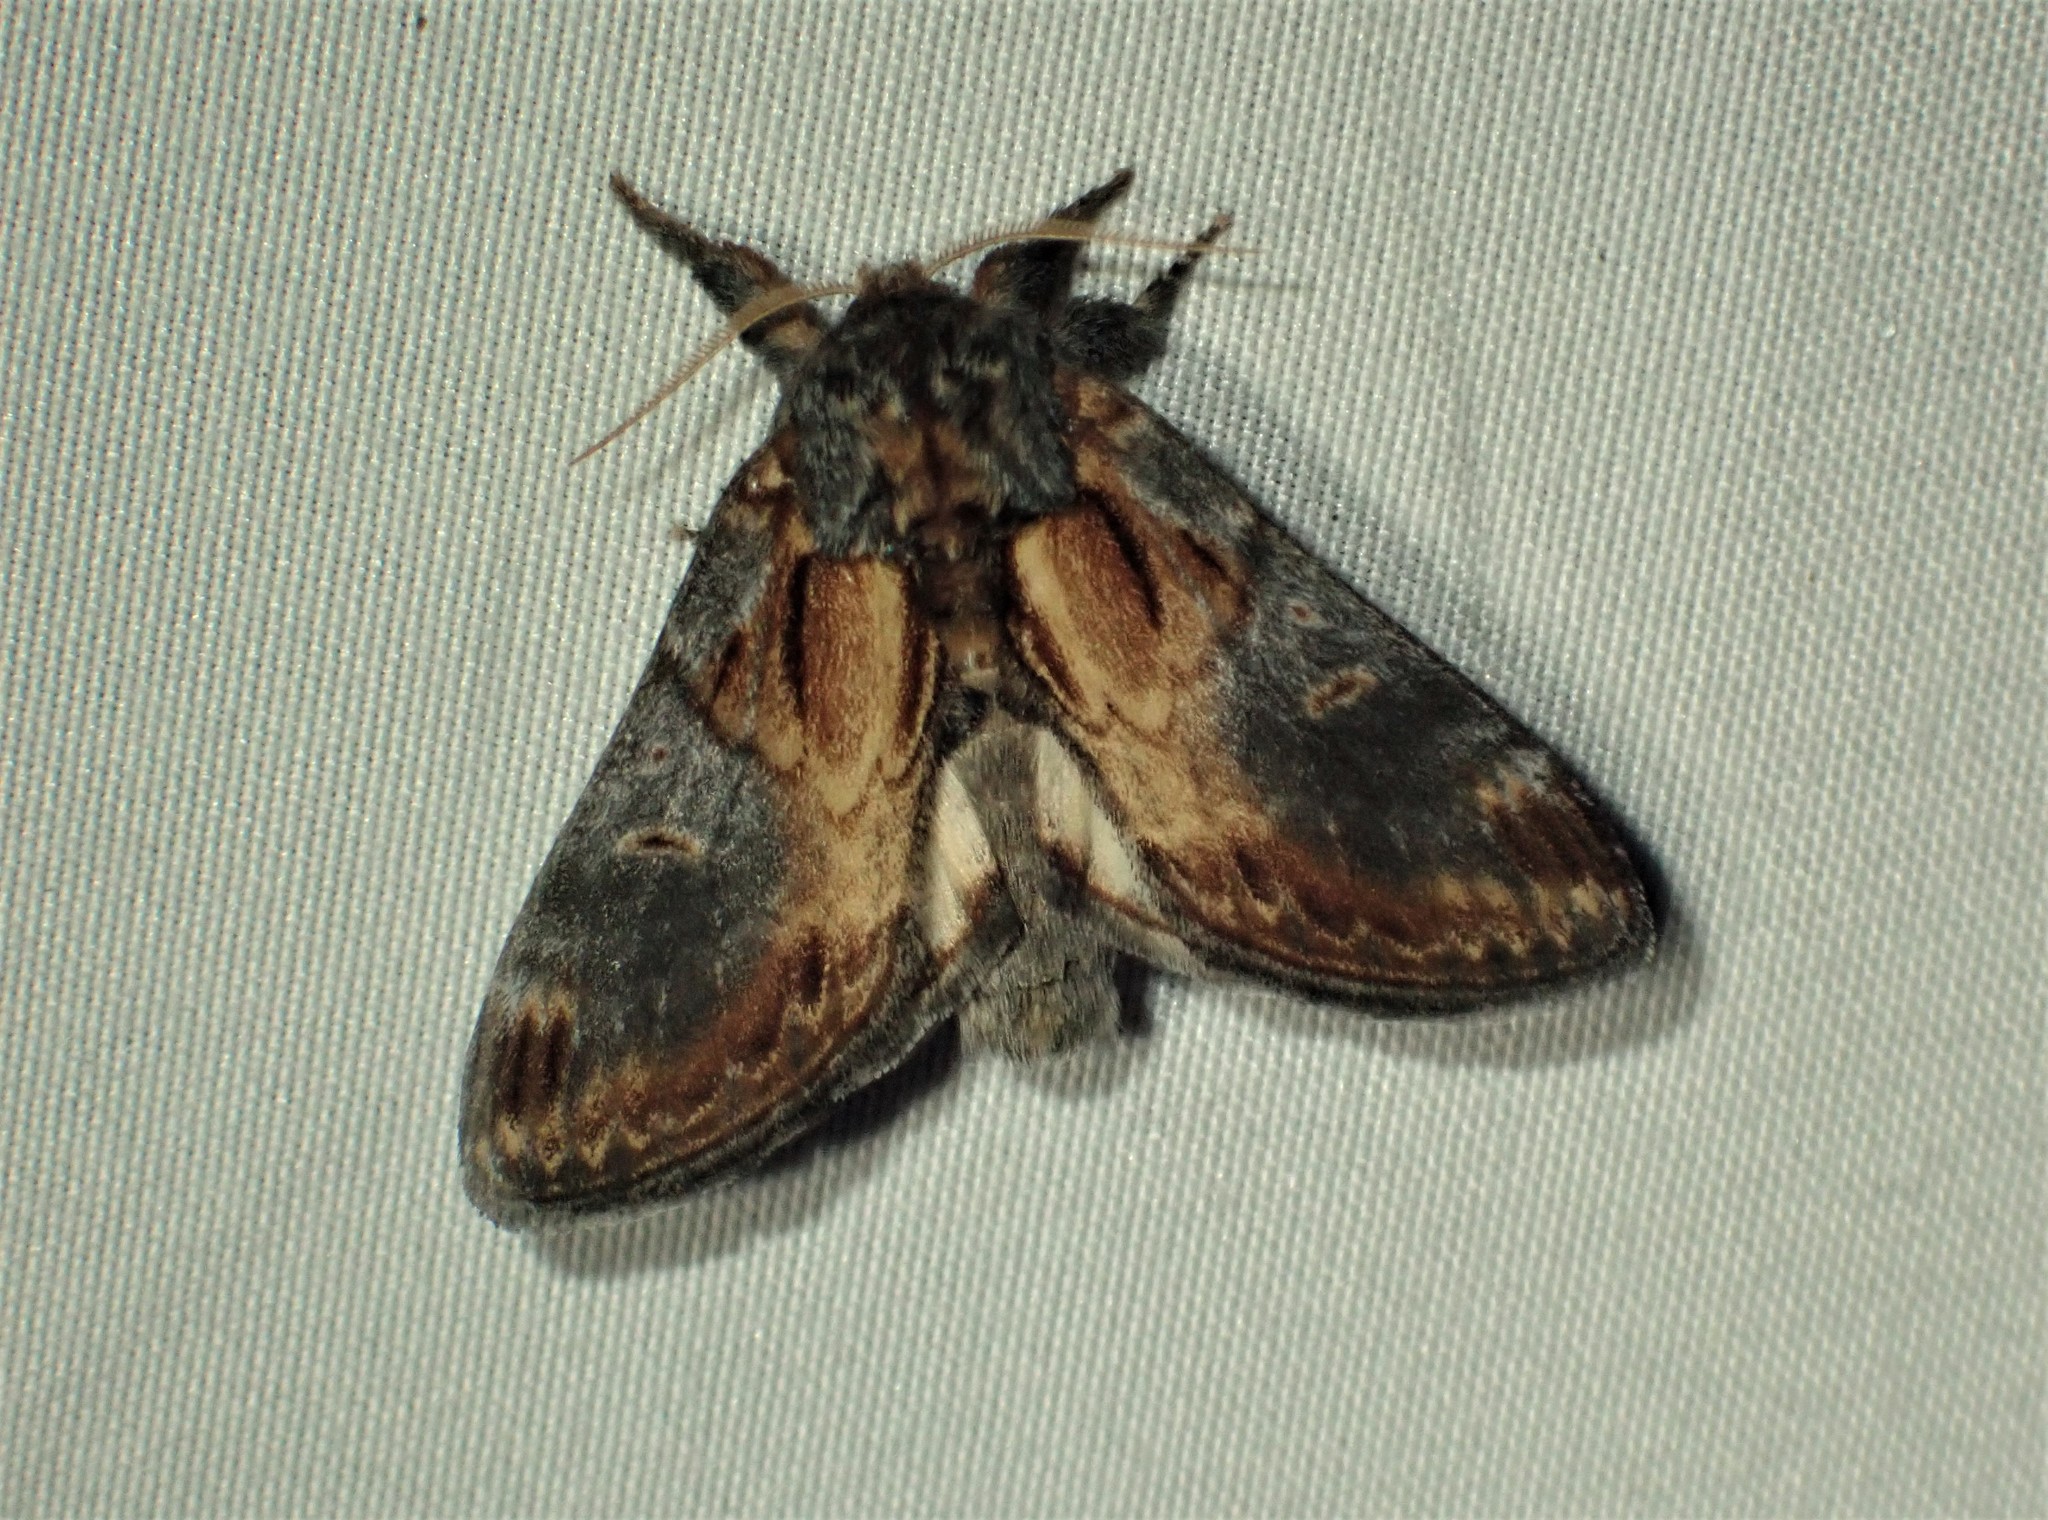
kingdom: Animalia
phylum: Arthropoda
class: Insecta
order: Lepidoptera
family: Notodontidae
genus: Notodonta
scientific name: Notodonta scitipennis
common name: Finned-willow prominent moth
